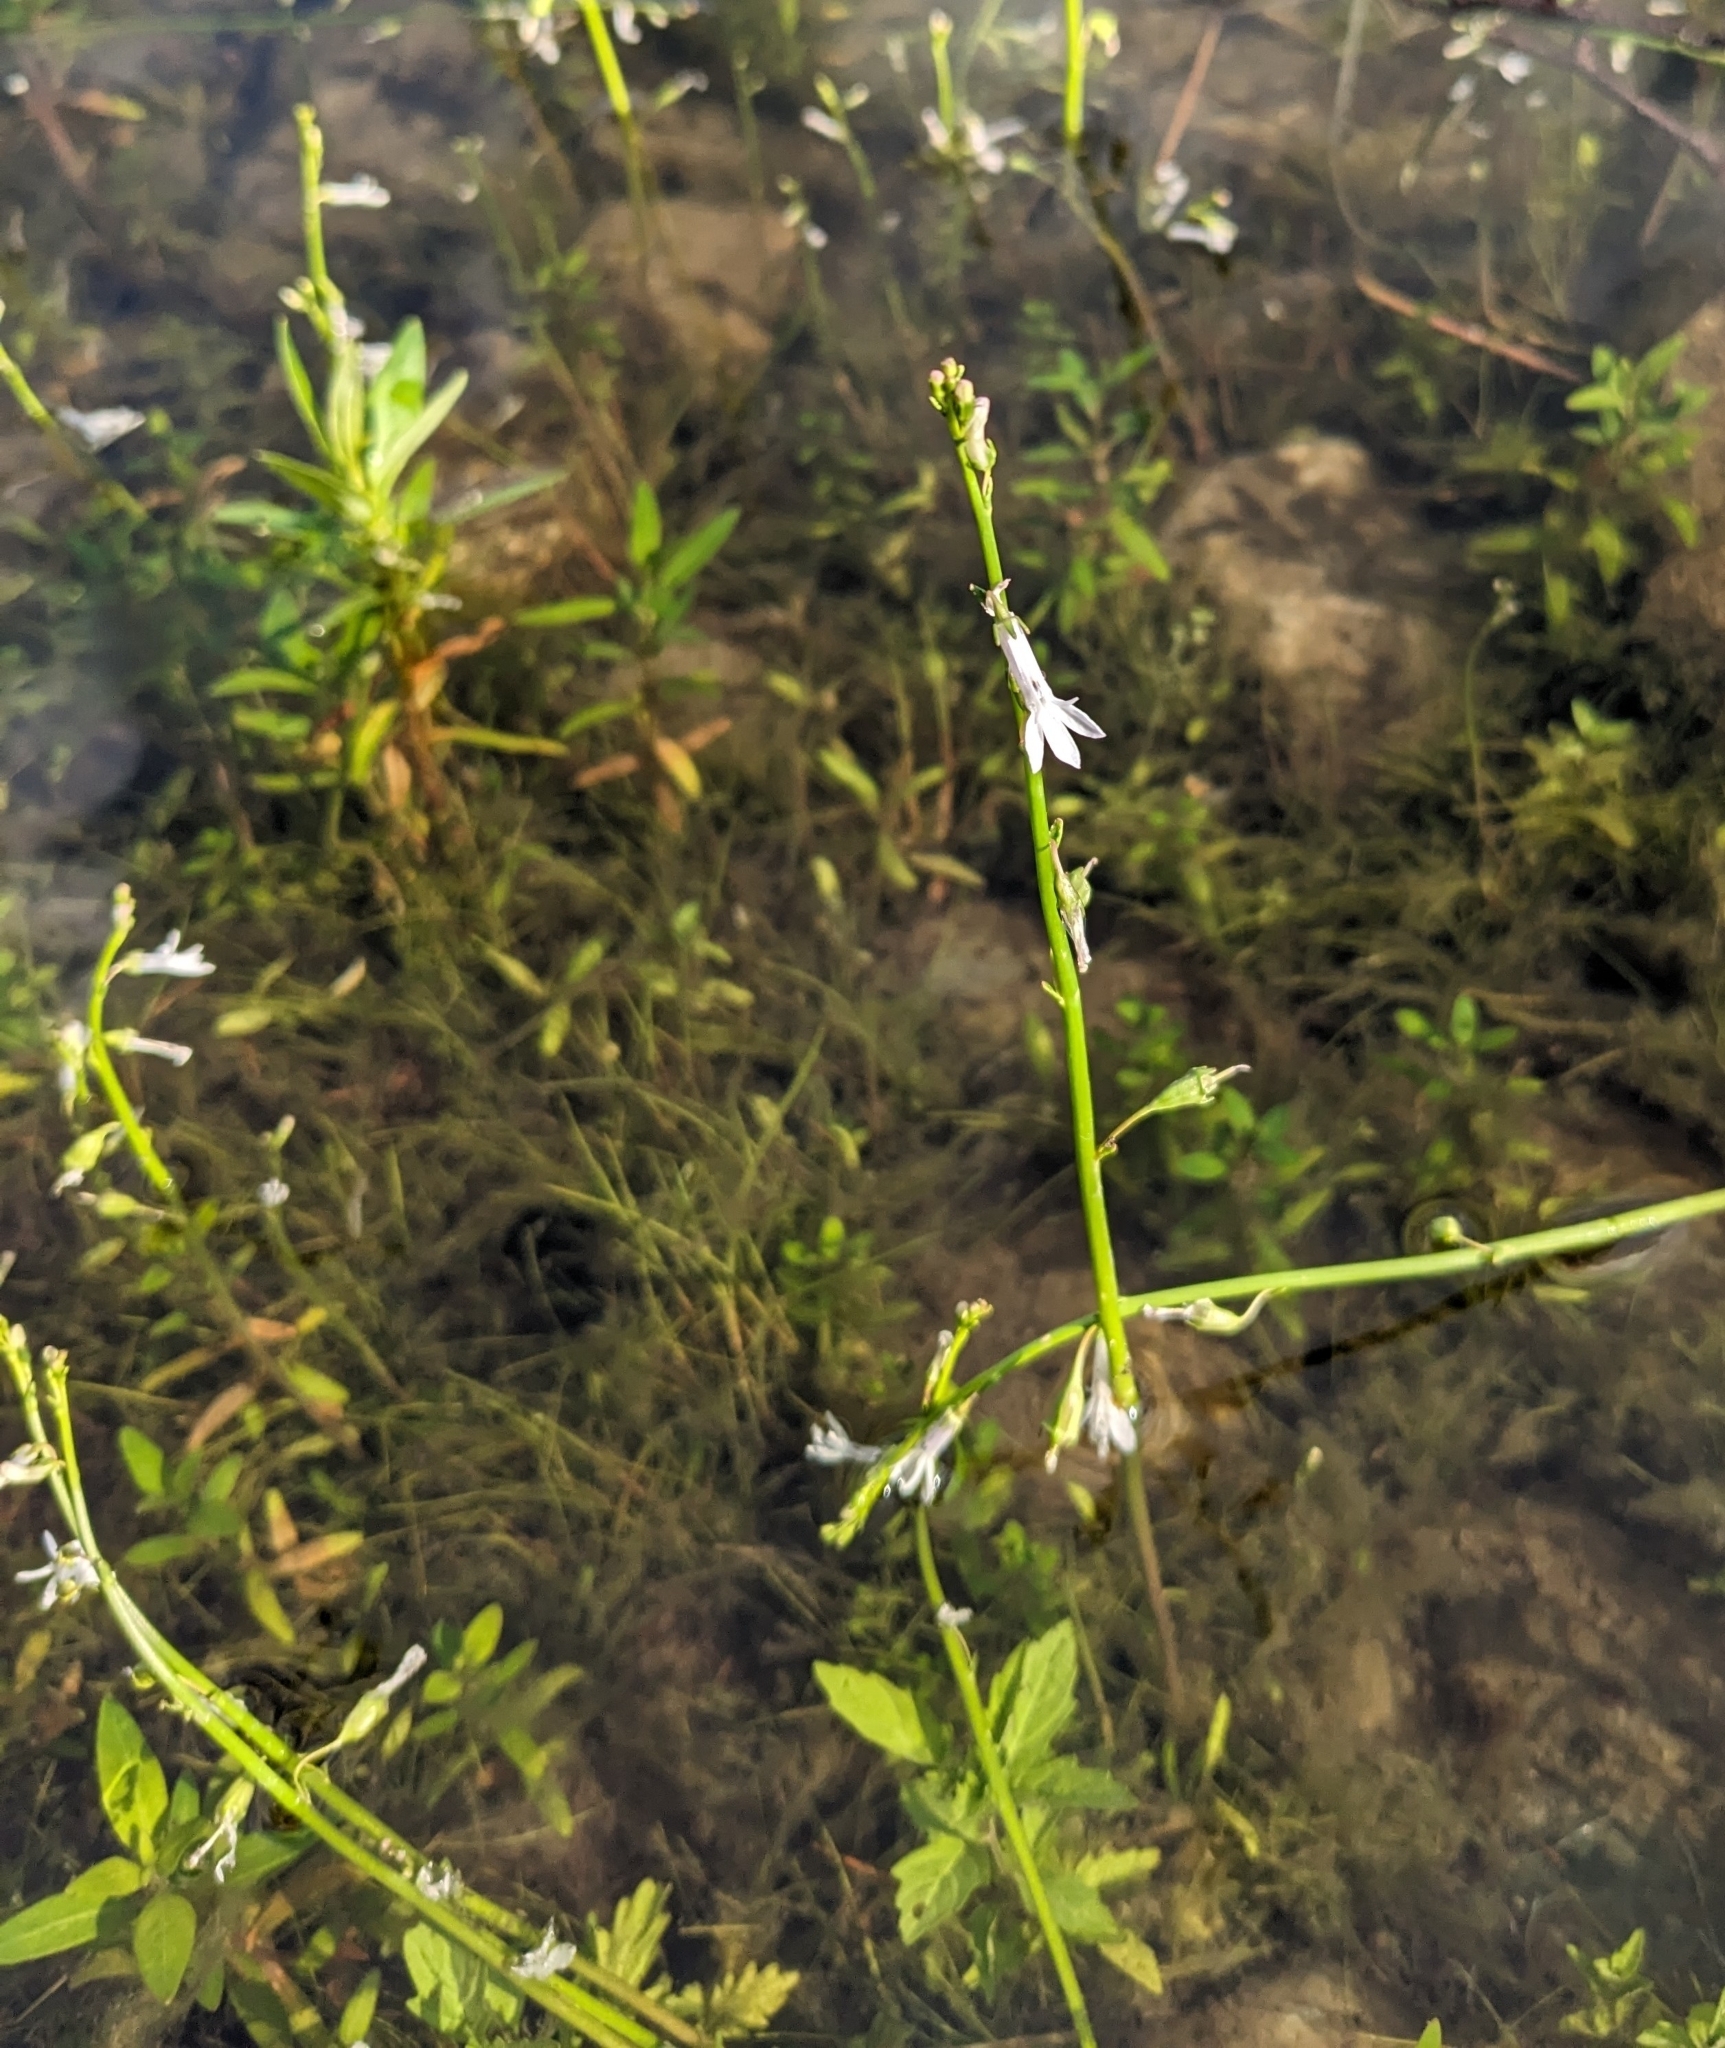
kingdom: Plantae
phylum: Tracheophyta
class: Magnoliopsida
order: Asterales
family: Campanulaceae
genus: Lobelia
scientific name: Lobelia dortmanna
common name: Water lobelia
